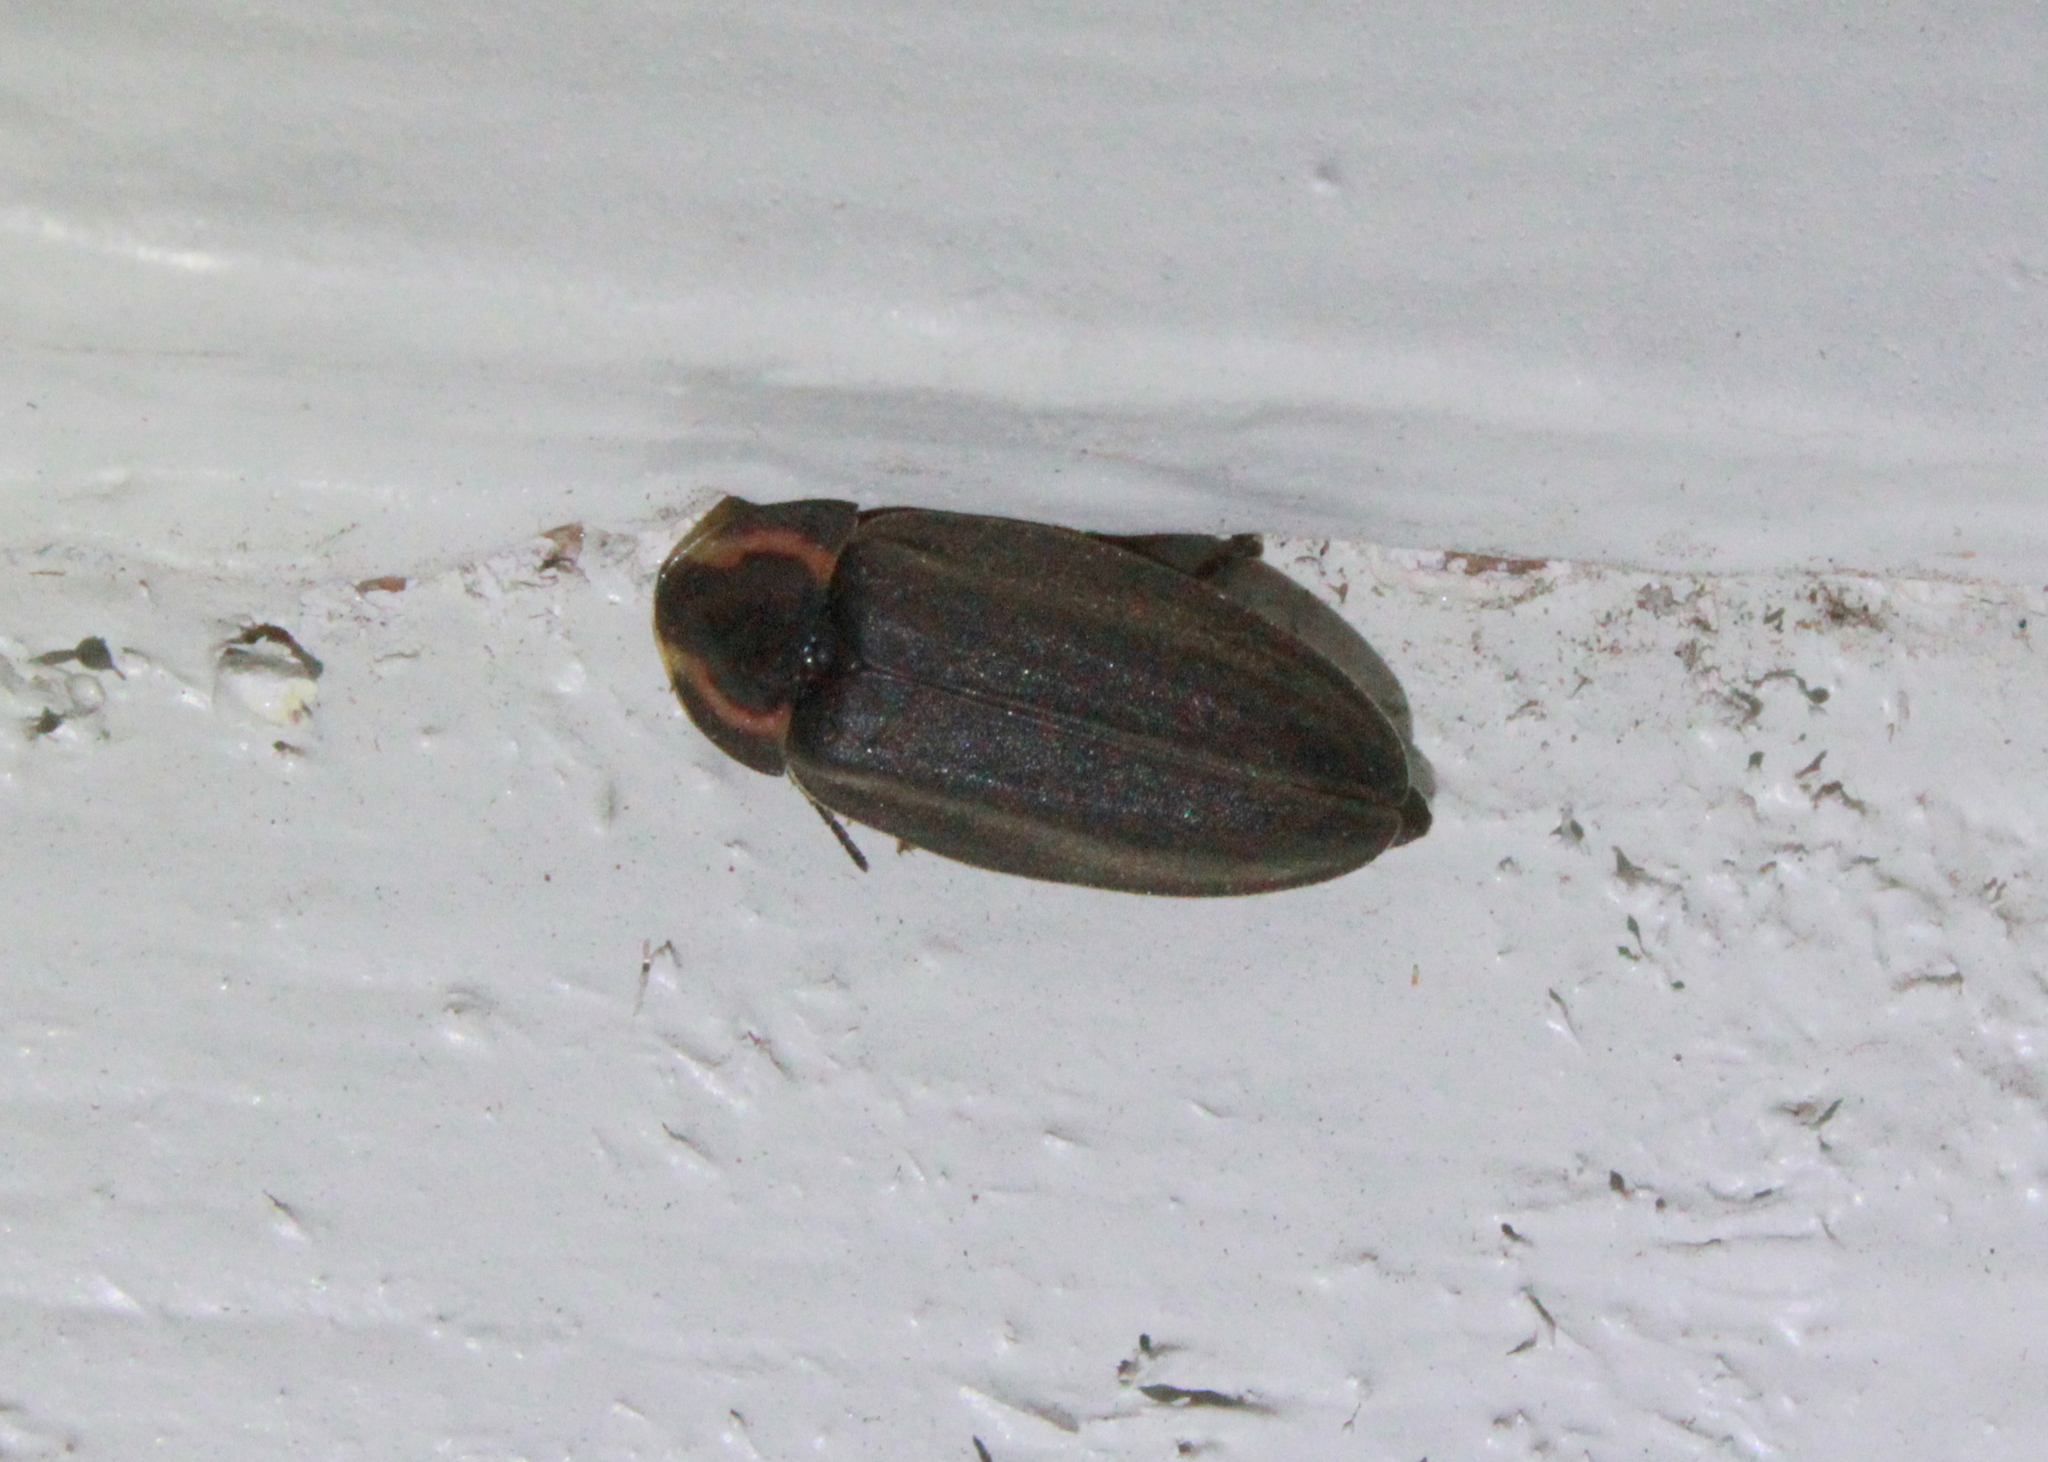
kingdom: Animalia
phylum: Arthropoda
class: Insecta
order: Coleoptera
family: Lampyridae
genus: Photinus
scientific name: Photinus corrusca
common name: Winter firefly
